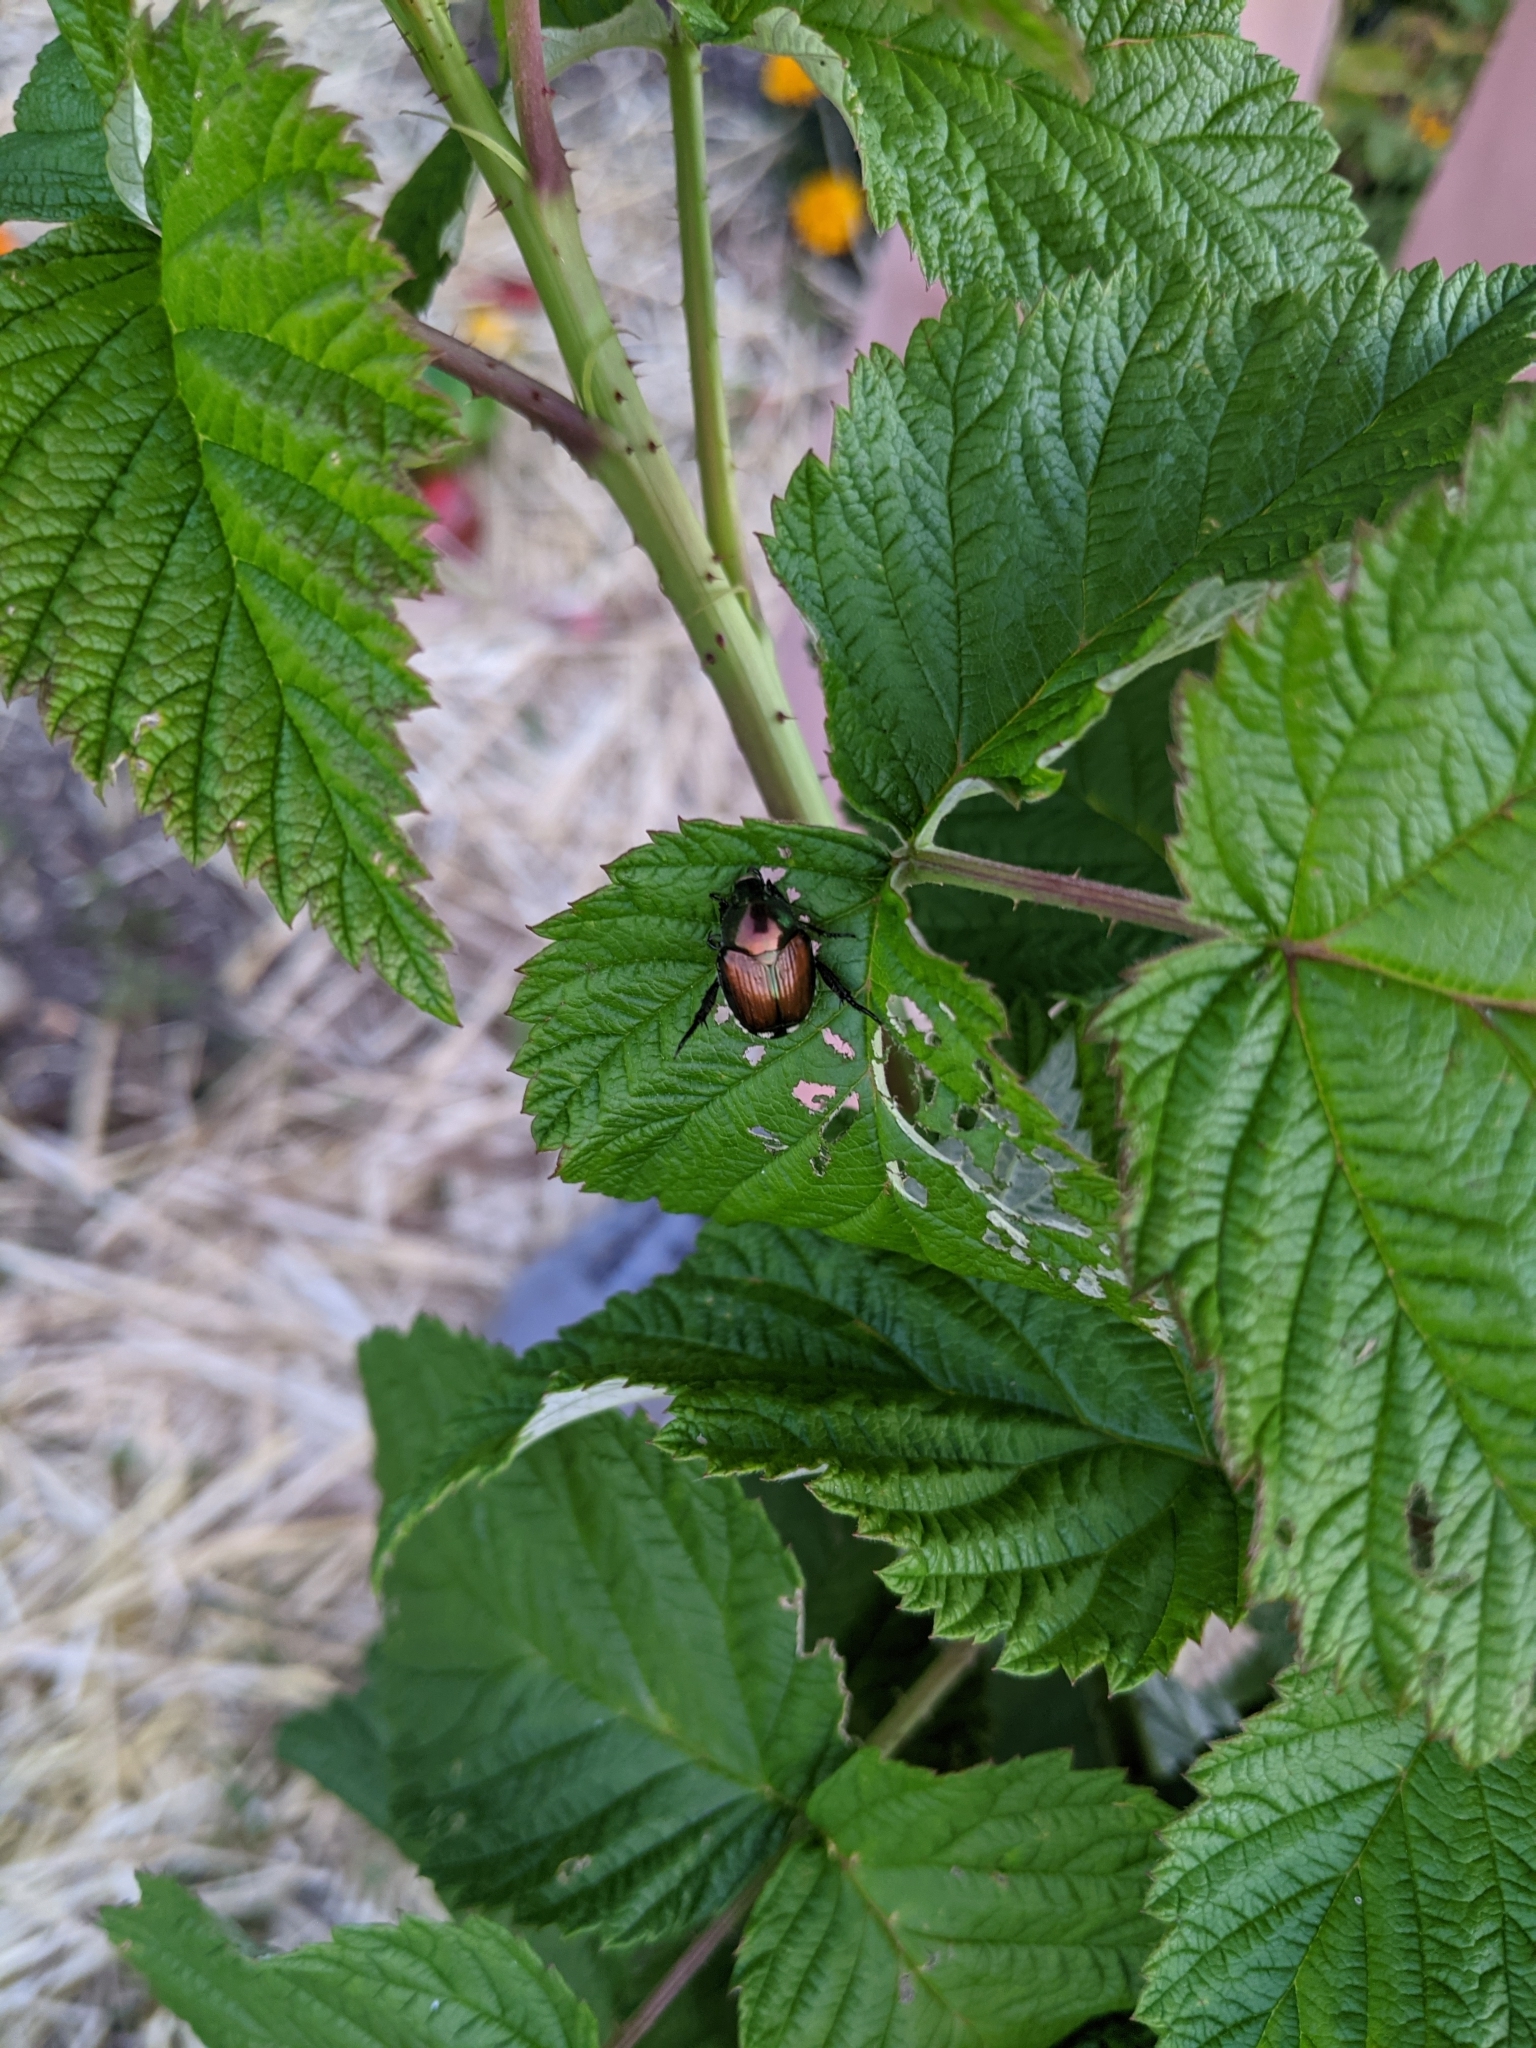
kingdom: Animalia
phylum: Arthropoda
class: Insecta
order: Lepidoptera
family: Erebidae
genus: Euchaetes
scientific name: Euchaetes egle
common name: Milkweed tussock moth
